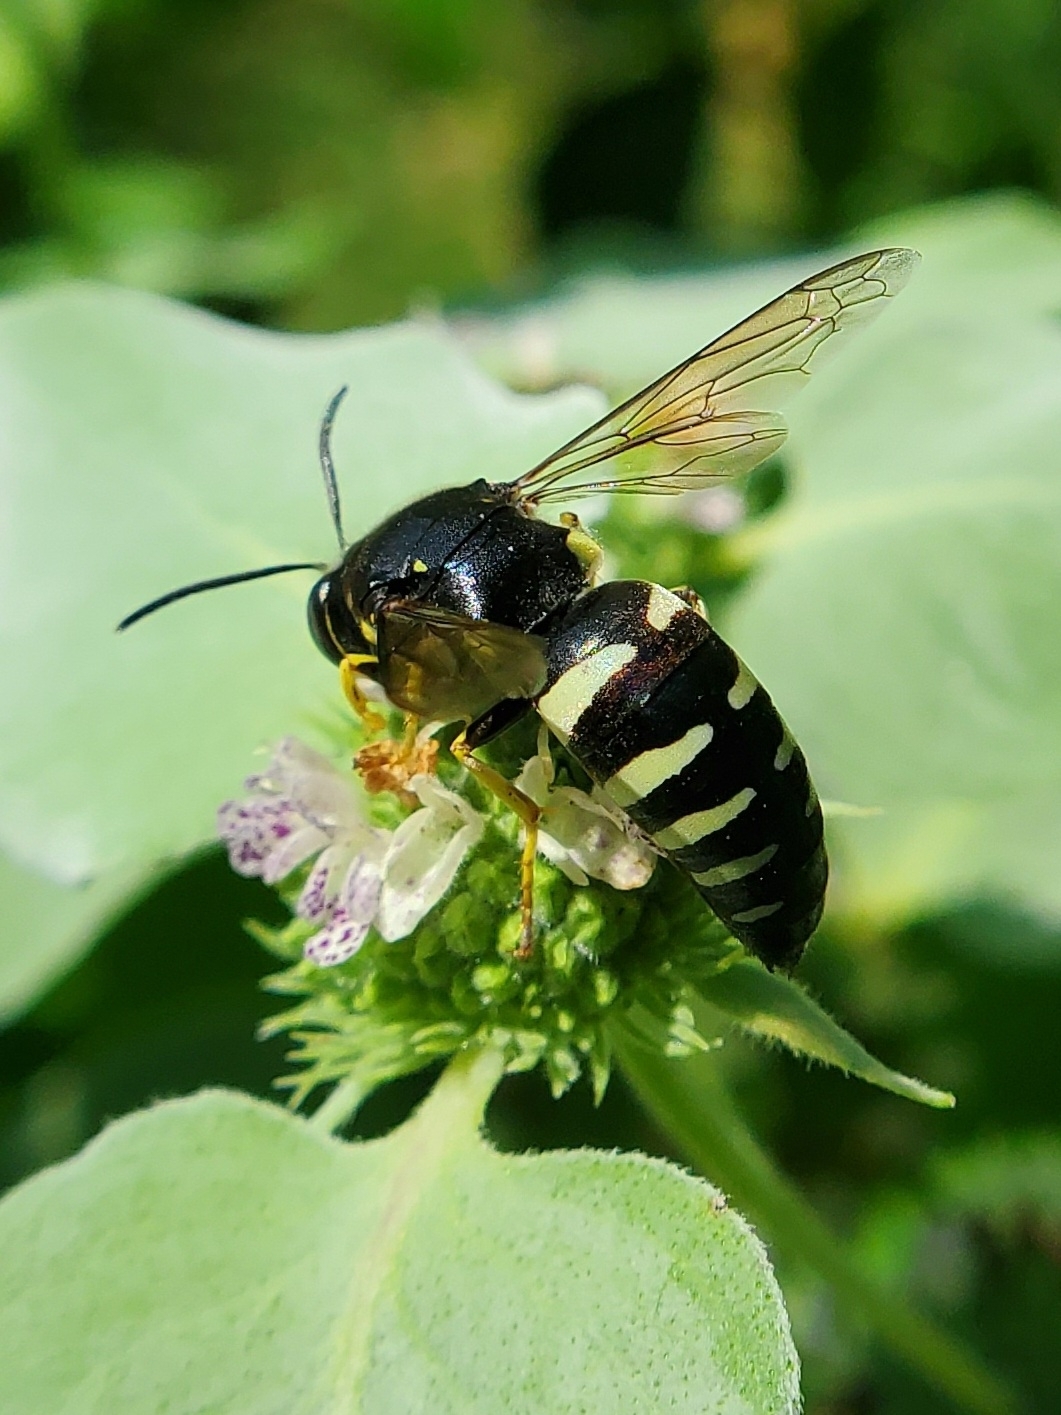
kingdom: Animalia
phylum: Arthropoda
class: Insecta
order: Hymenoptera
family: Crabronidae
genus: Bicyrtes
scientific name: Bicyrtes quadrifasciatus
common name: Four-banded stink bug hunter wasp
